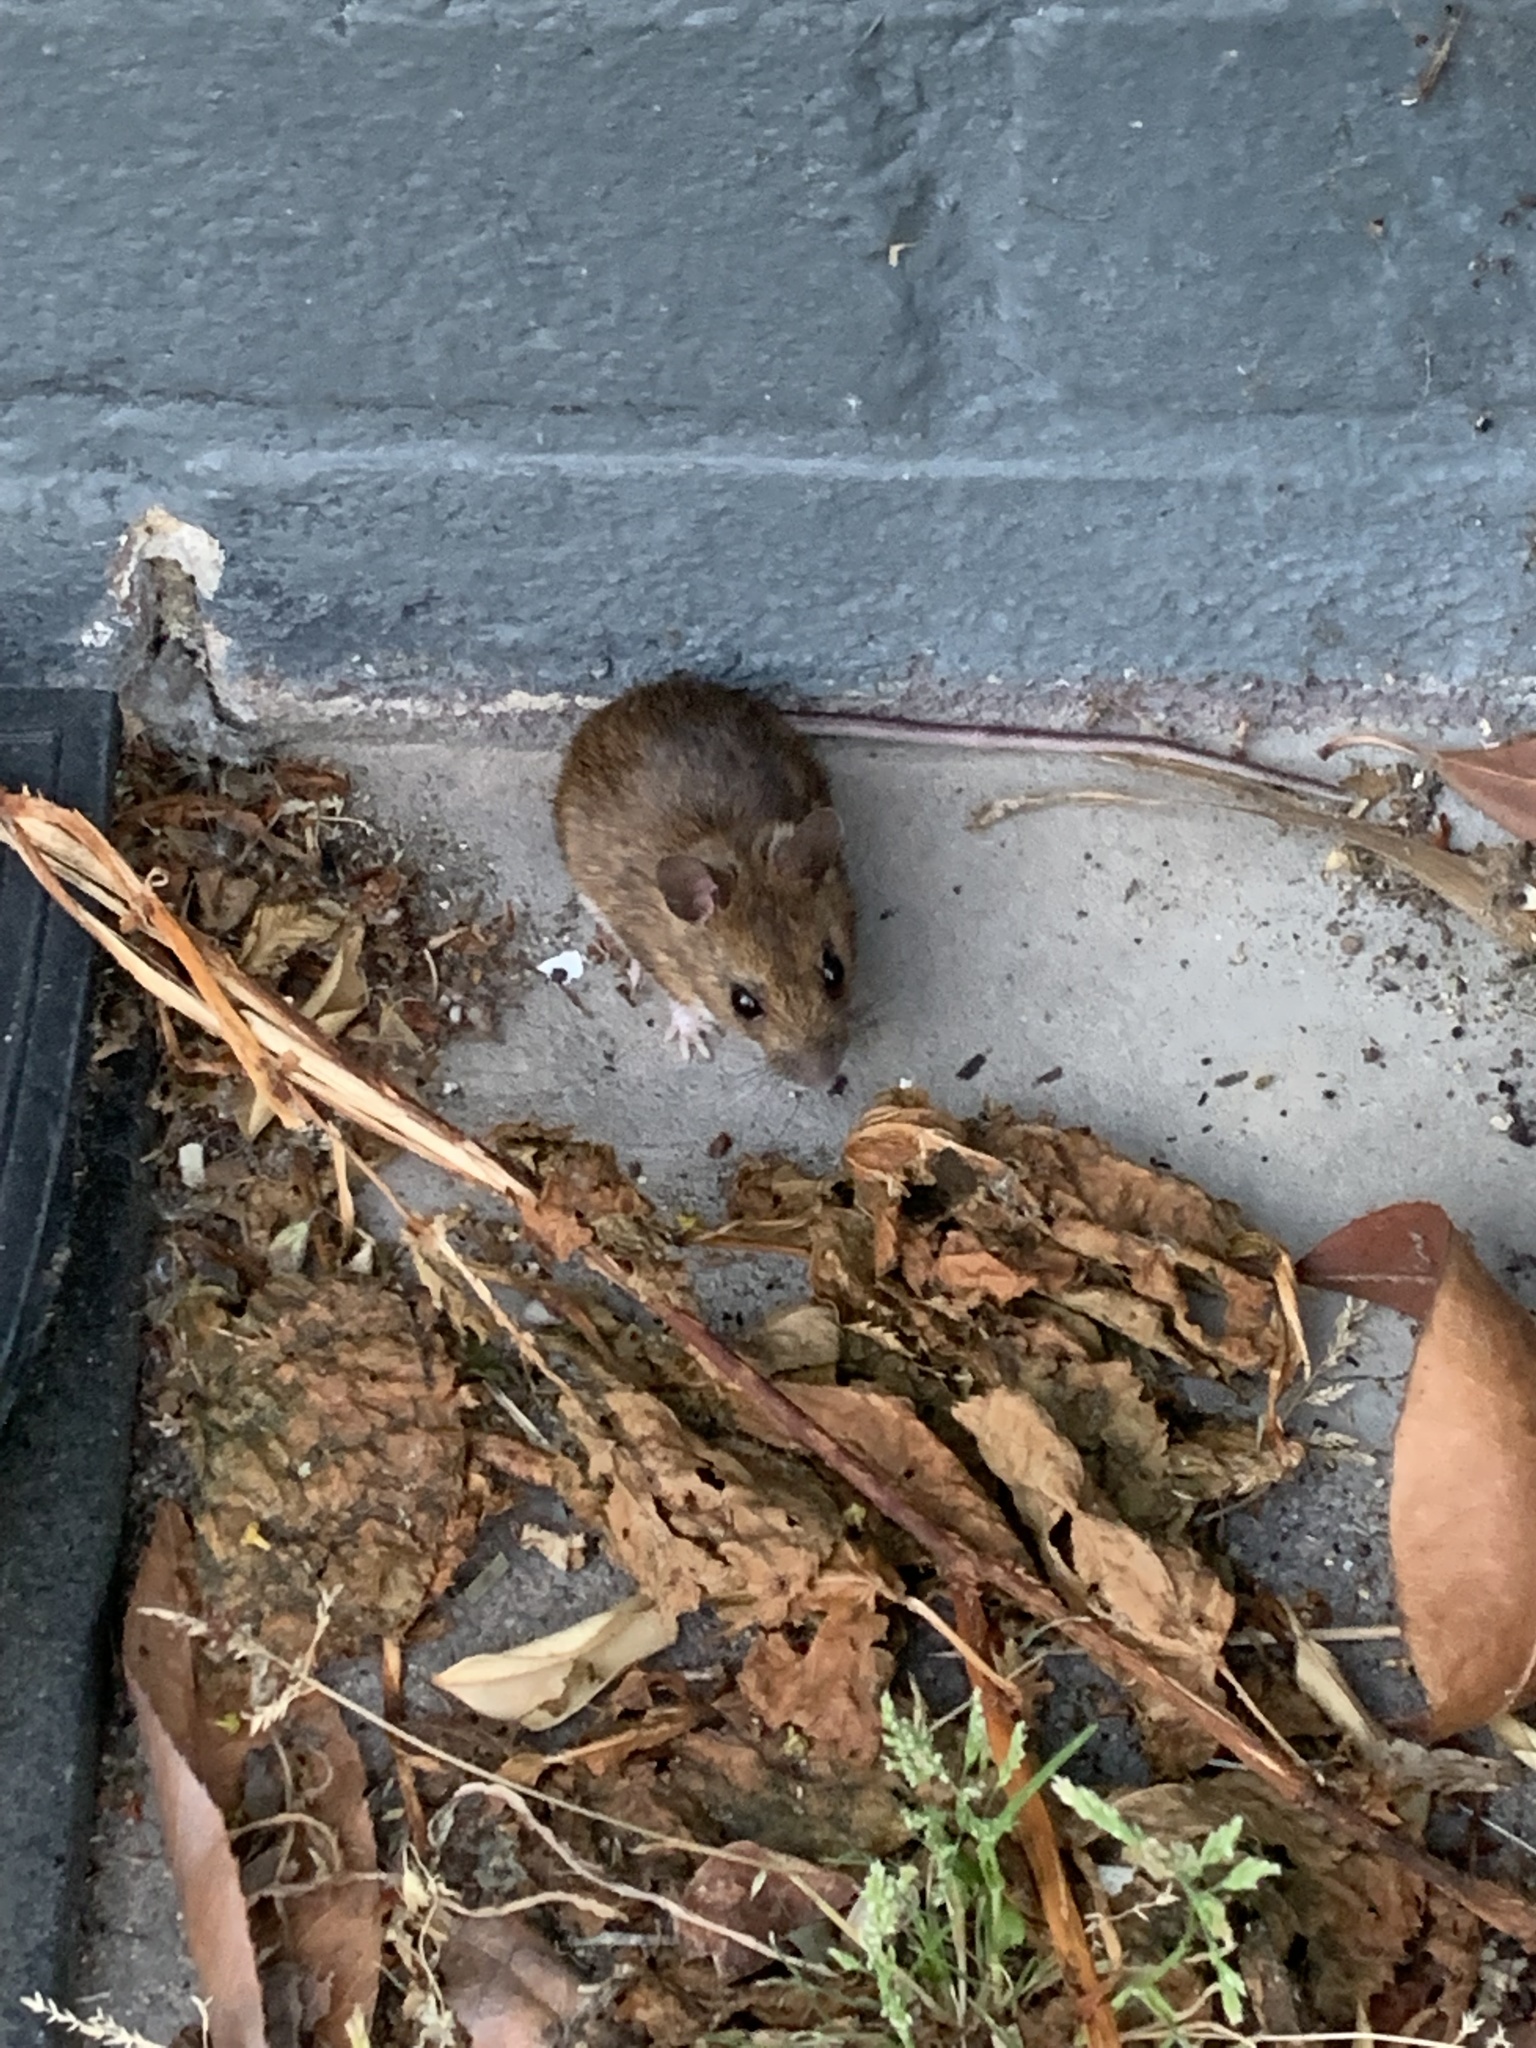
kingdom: Animalia
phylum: Chordata
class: Mammalia
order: Rodentia
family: Muridae
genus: Apodemus
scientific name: Apodemus sylvaticus
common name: Wood mouse
